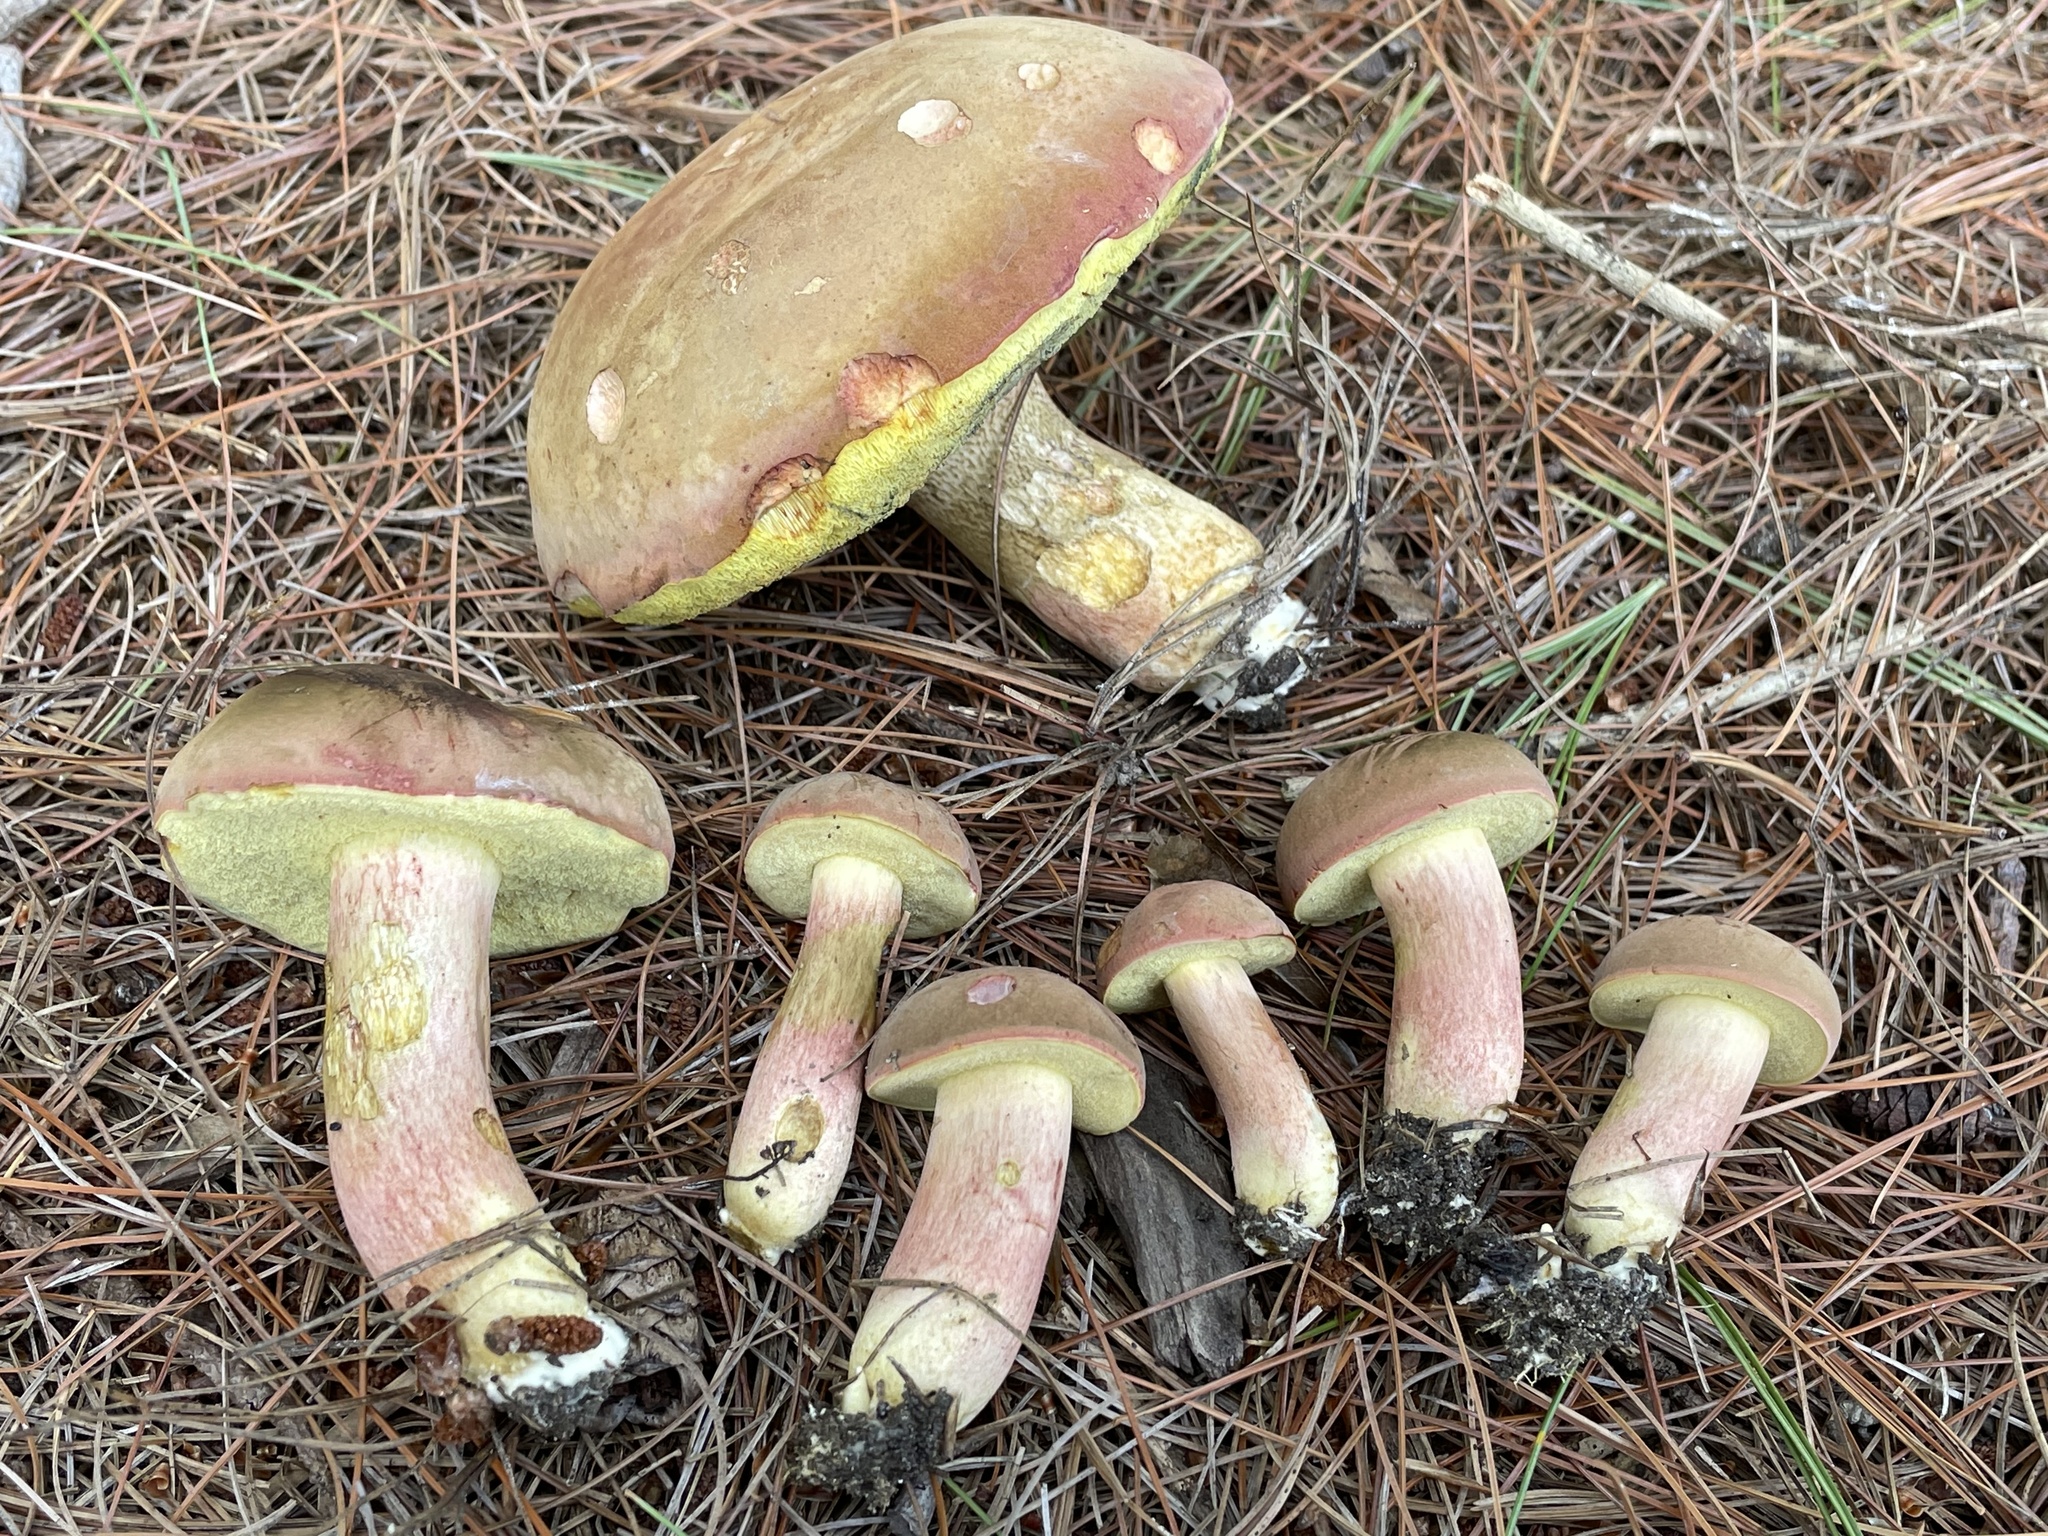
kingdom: Fungi
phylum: Basidiomycota
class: Agaricomycetes
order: Boletales
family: Boletaceae
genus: Boletus
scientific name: Boletus patrioticus
